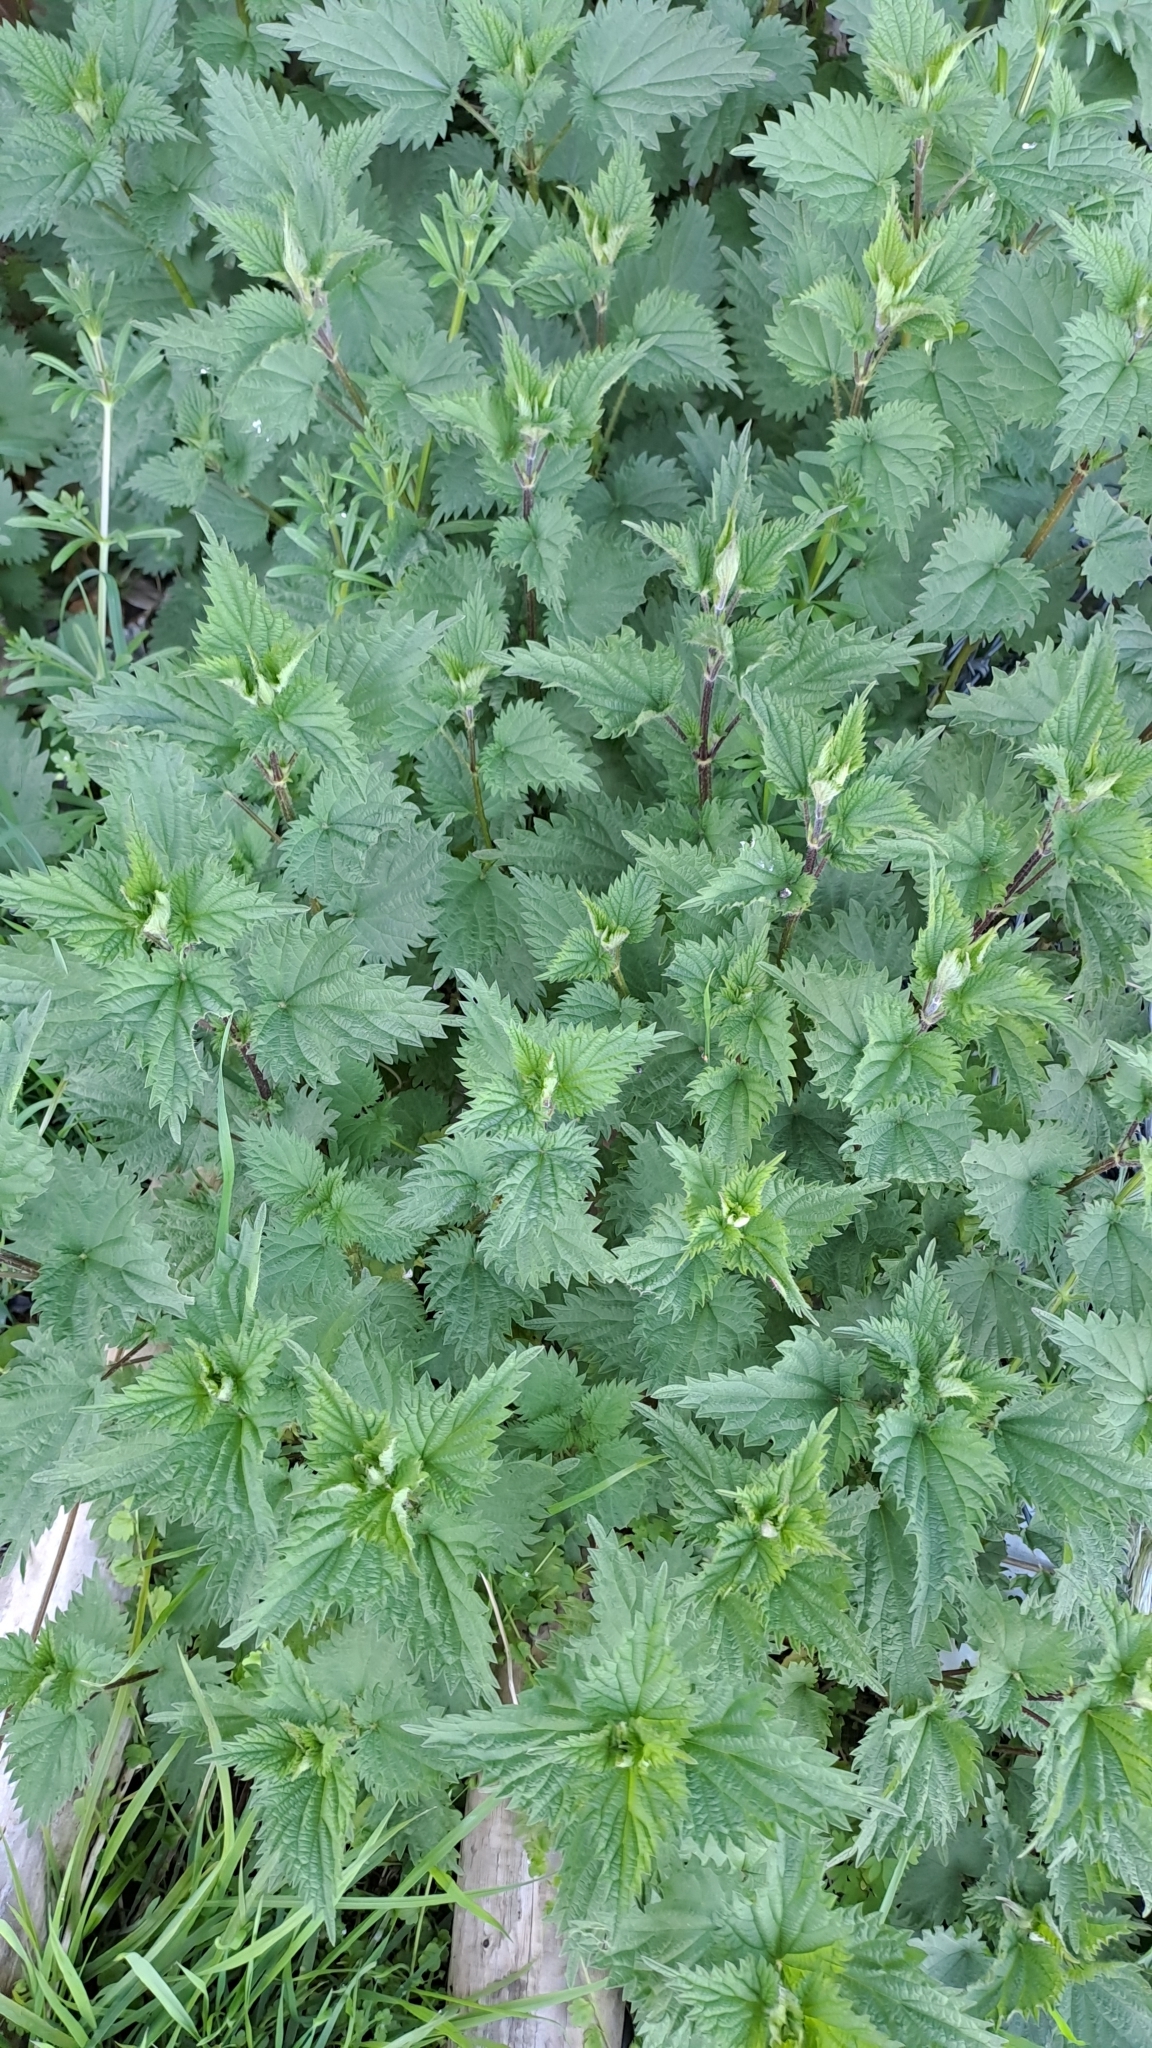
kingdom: Plantae
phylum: Tracheophyta
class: Magnoliopsida
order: Rosales
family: Urticaceae
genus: Urtica
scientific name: Urtica dioica
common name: Common nettle
